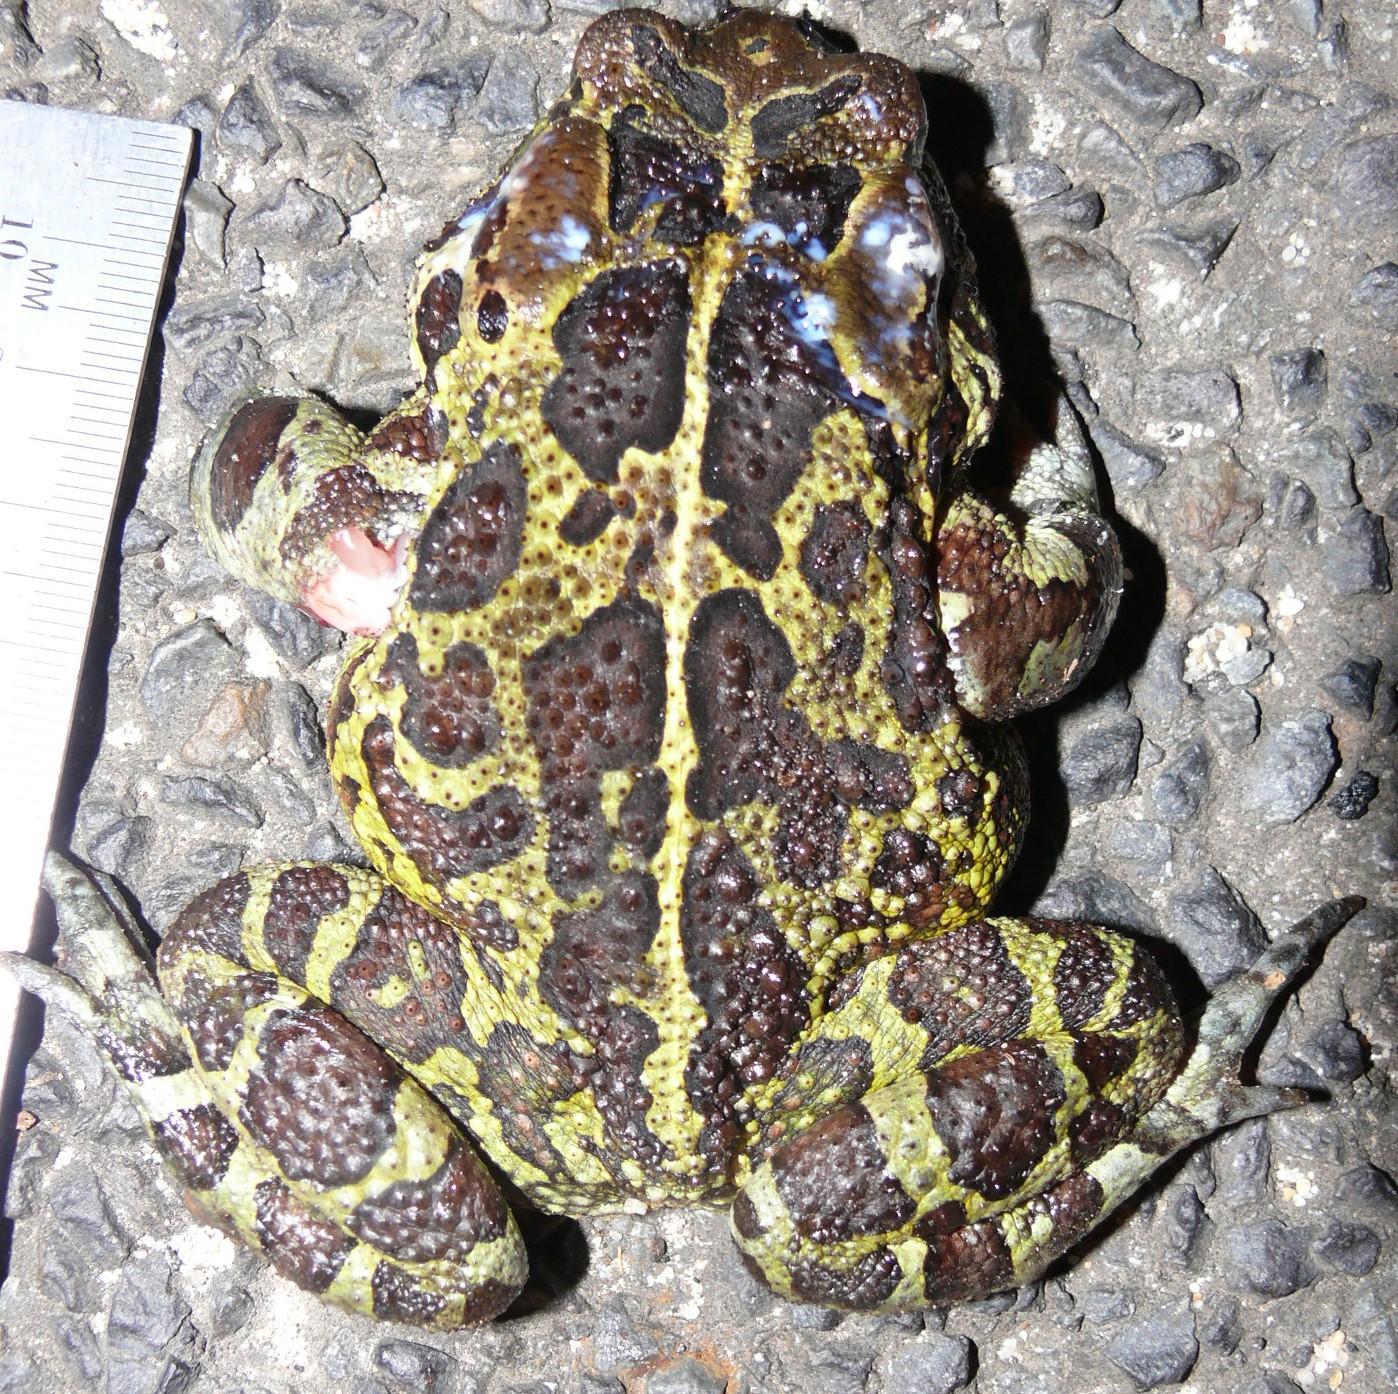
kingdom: Animalia
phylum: Chordata
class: Amphibia
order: Anura
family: Bufonidae
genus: Sclerophrys
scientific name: Sclerophrys pantherina
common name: Panther toad
